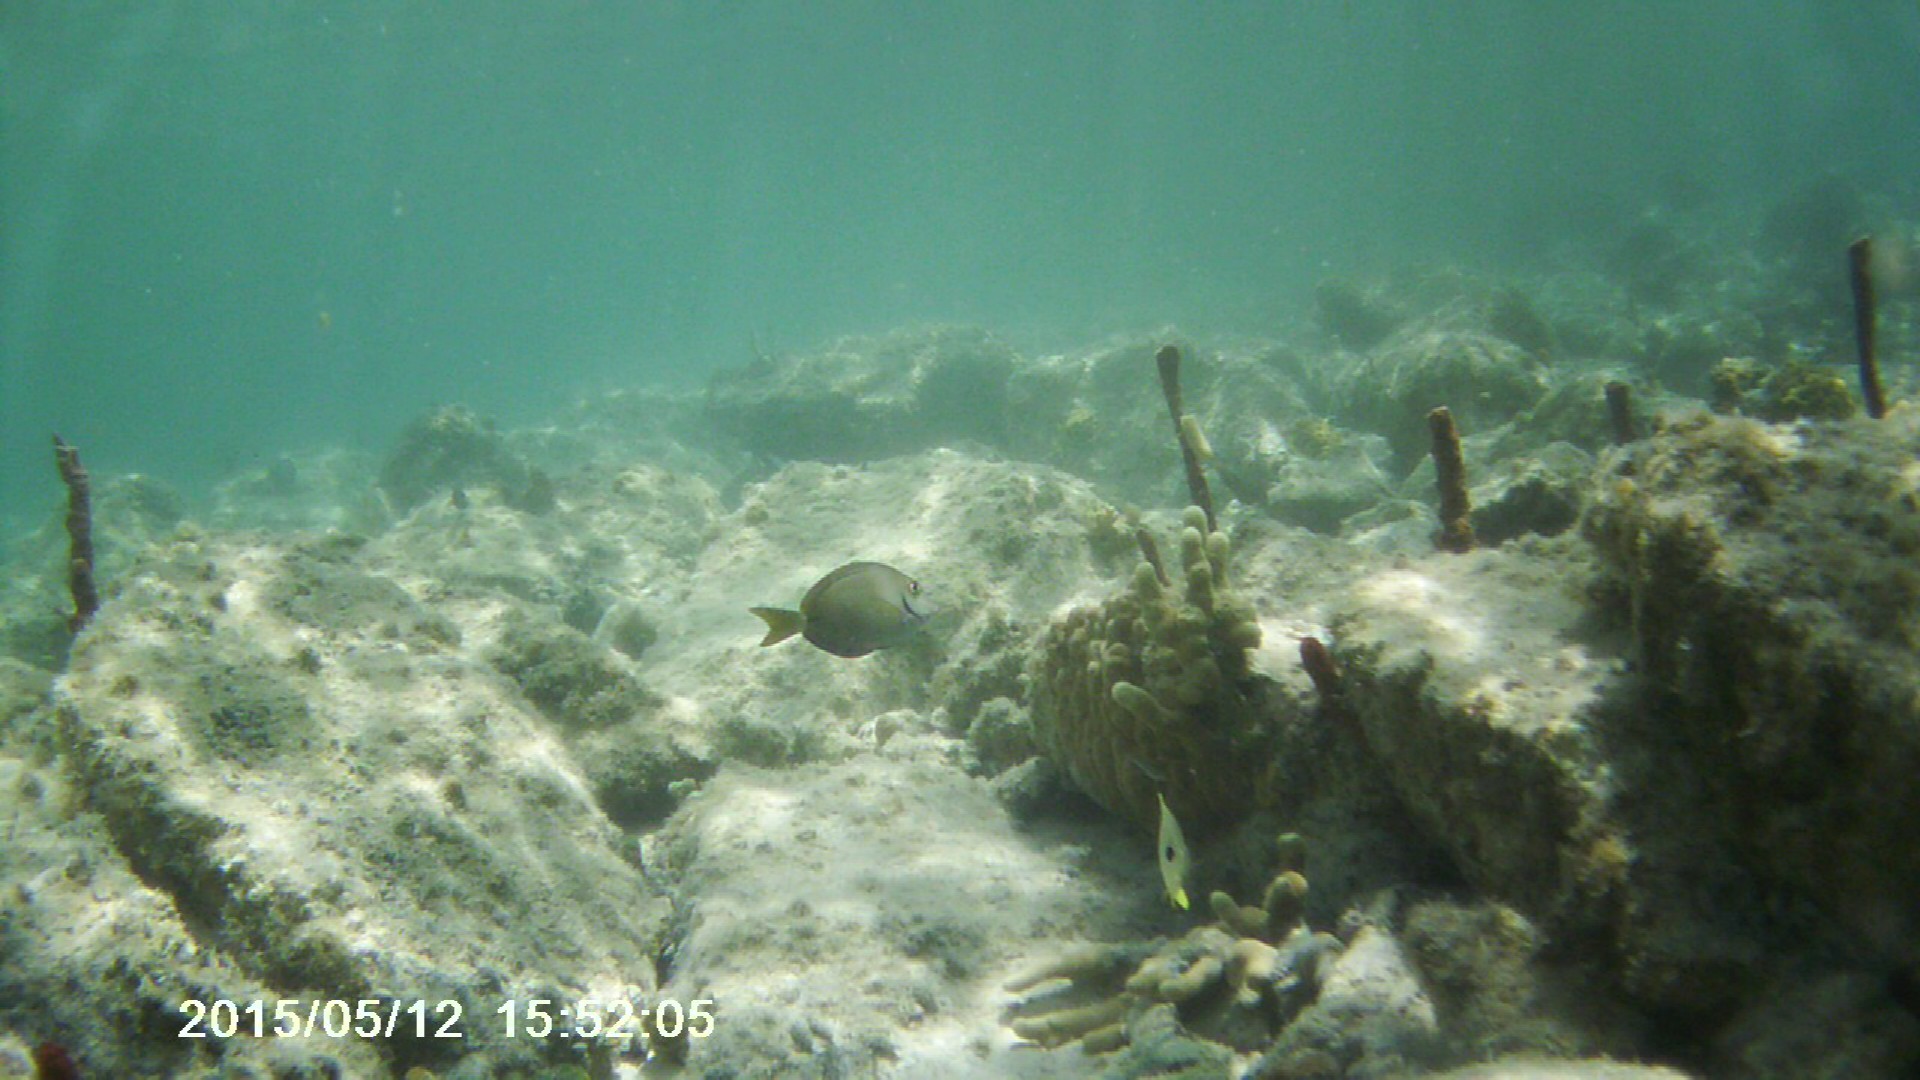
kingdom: Animalia
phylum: Chordata
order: Perciformes
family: Acanthuridae
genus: Acanthurus
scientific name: Acanthurus bahianus
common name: Ocean surgeon
